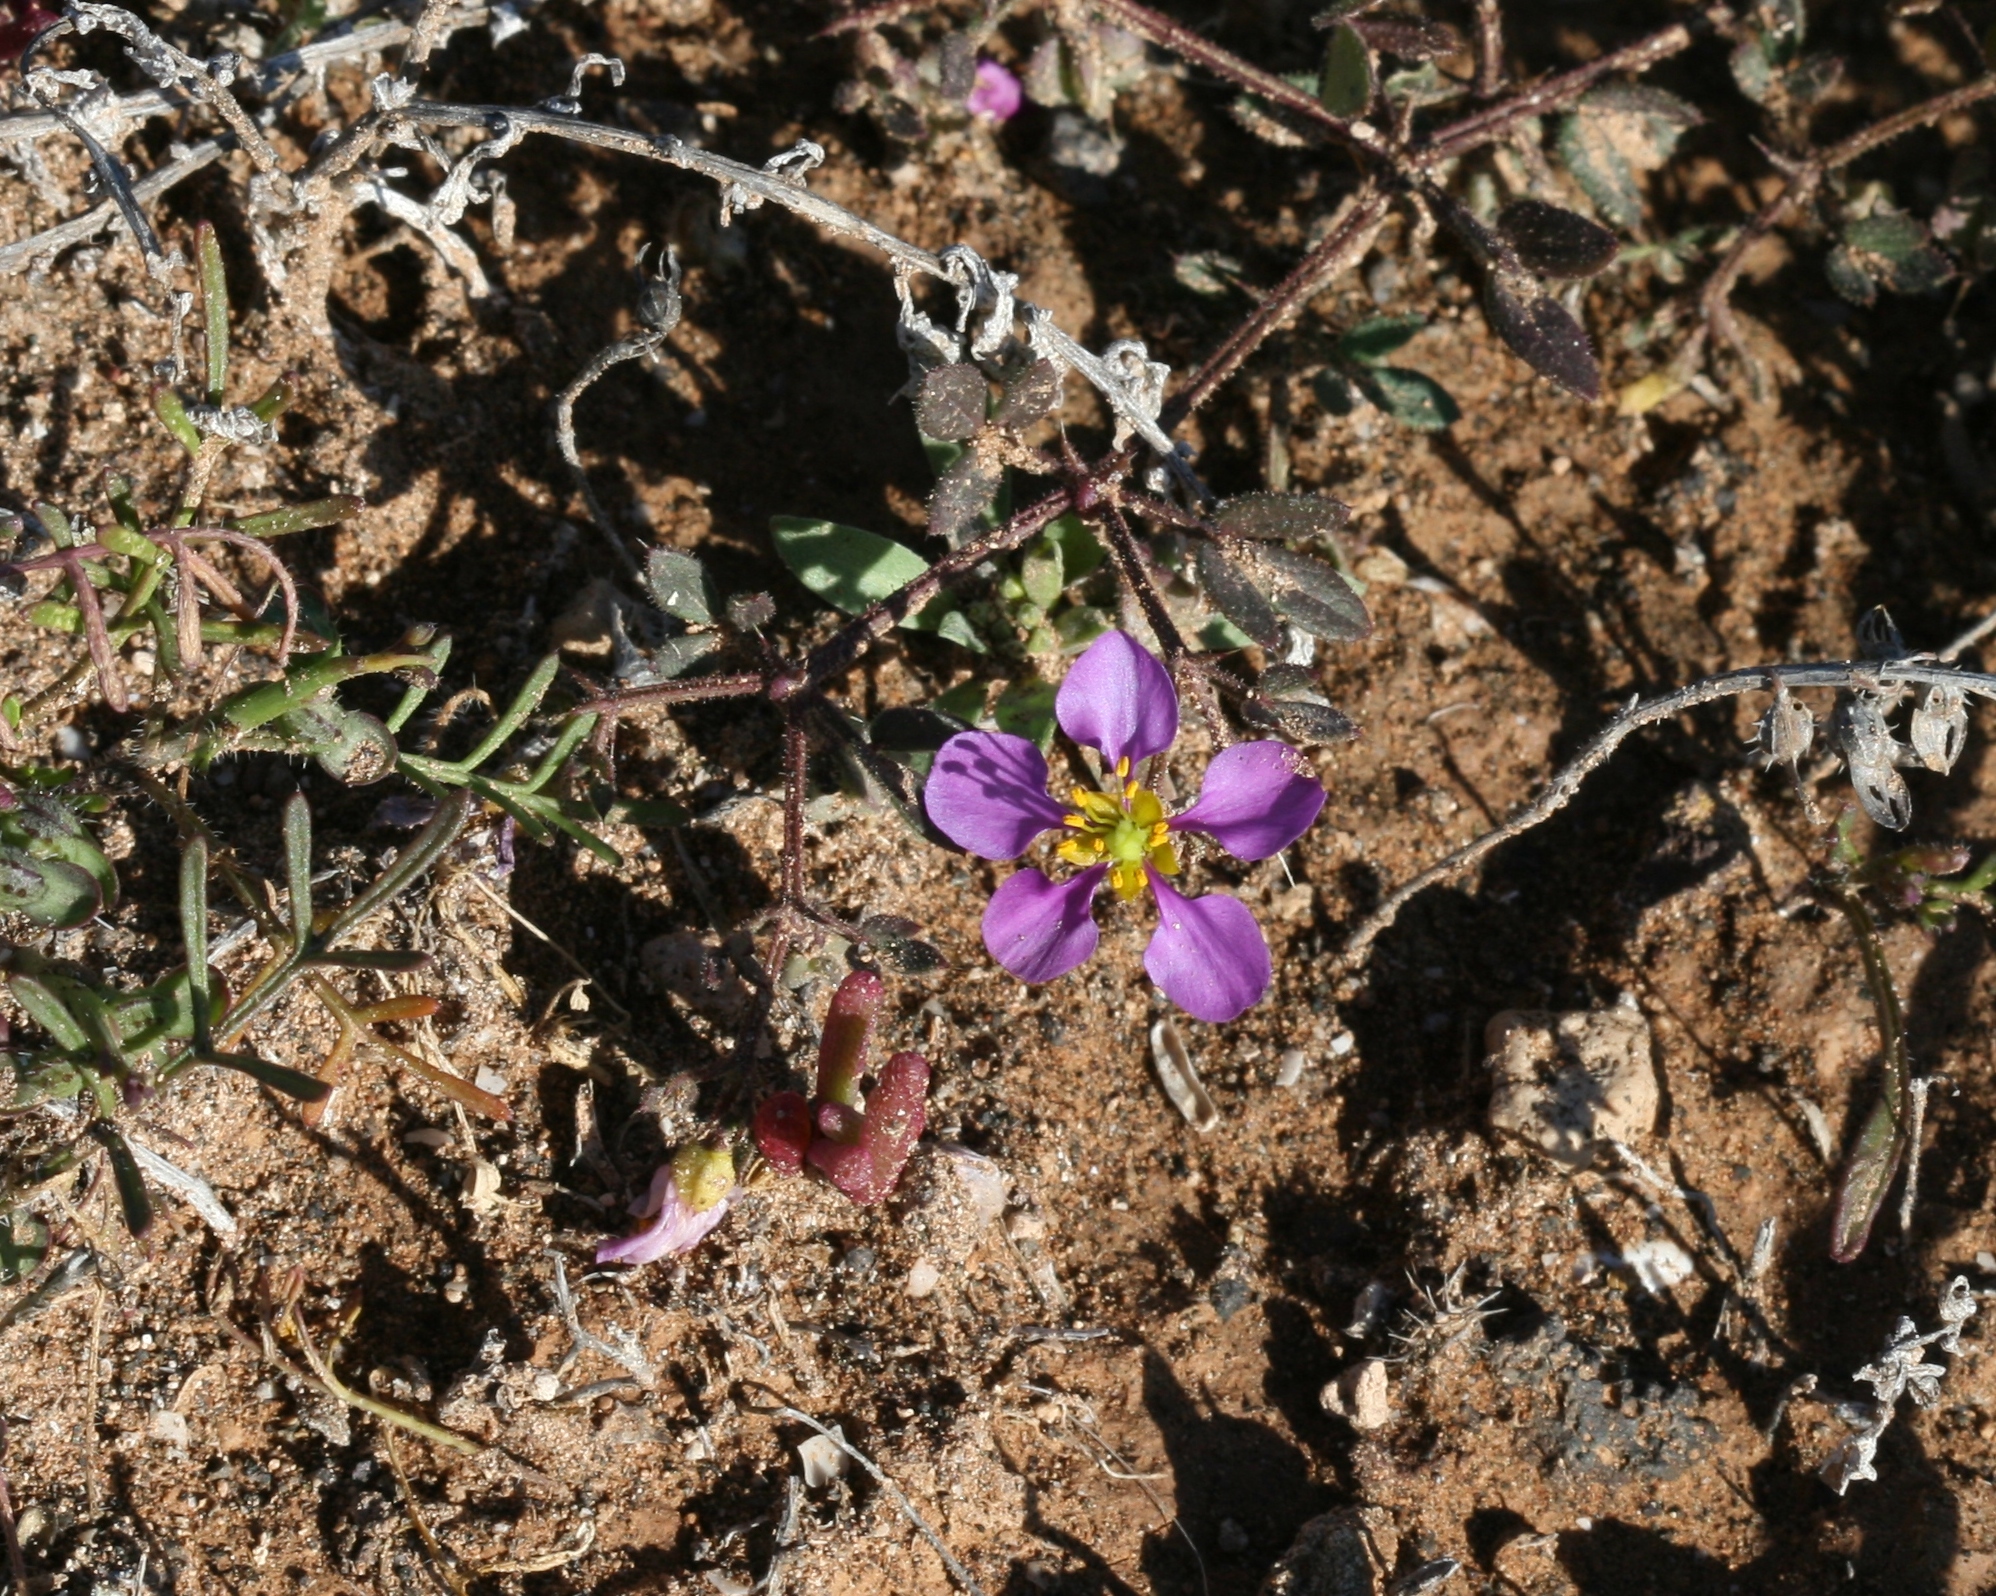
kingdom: Plantae
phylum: Tracheophyta
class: Magnoliopsida
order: Zygophyllales
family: Zygophyllaceae
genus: Fagonia
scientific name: Fagonia cretica
